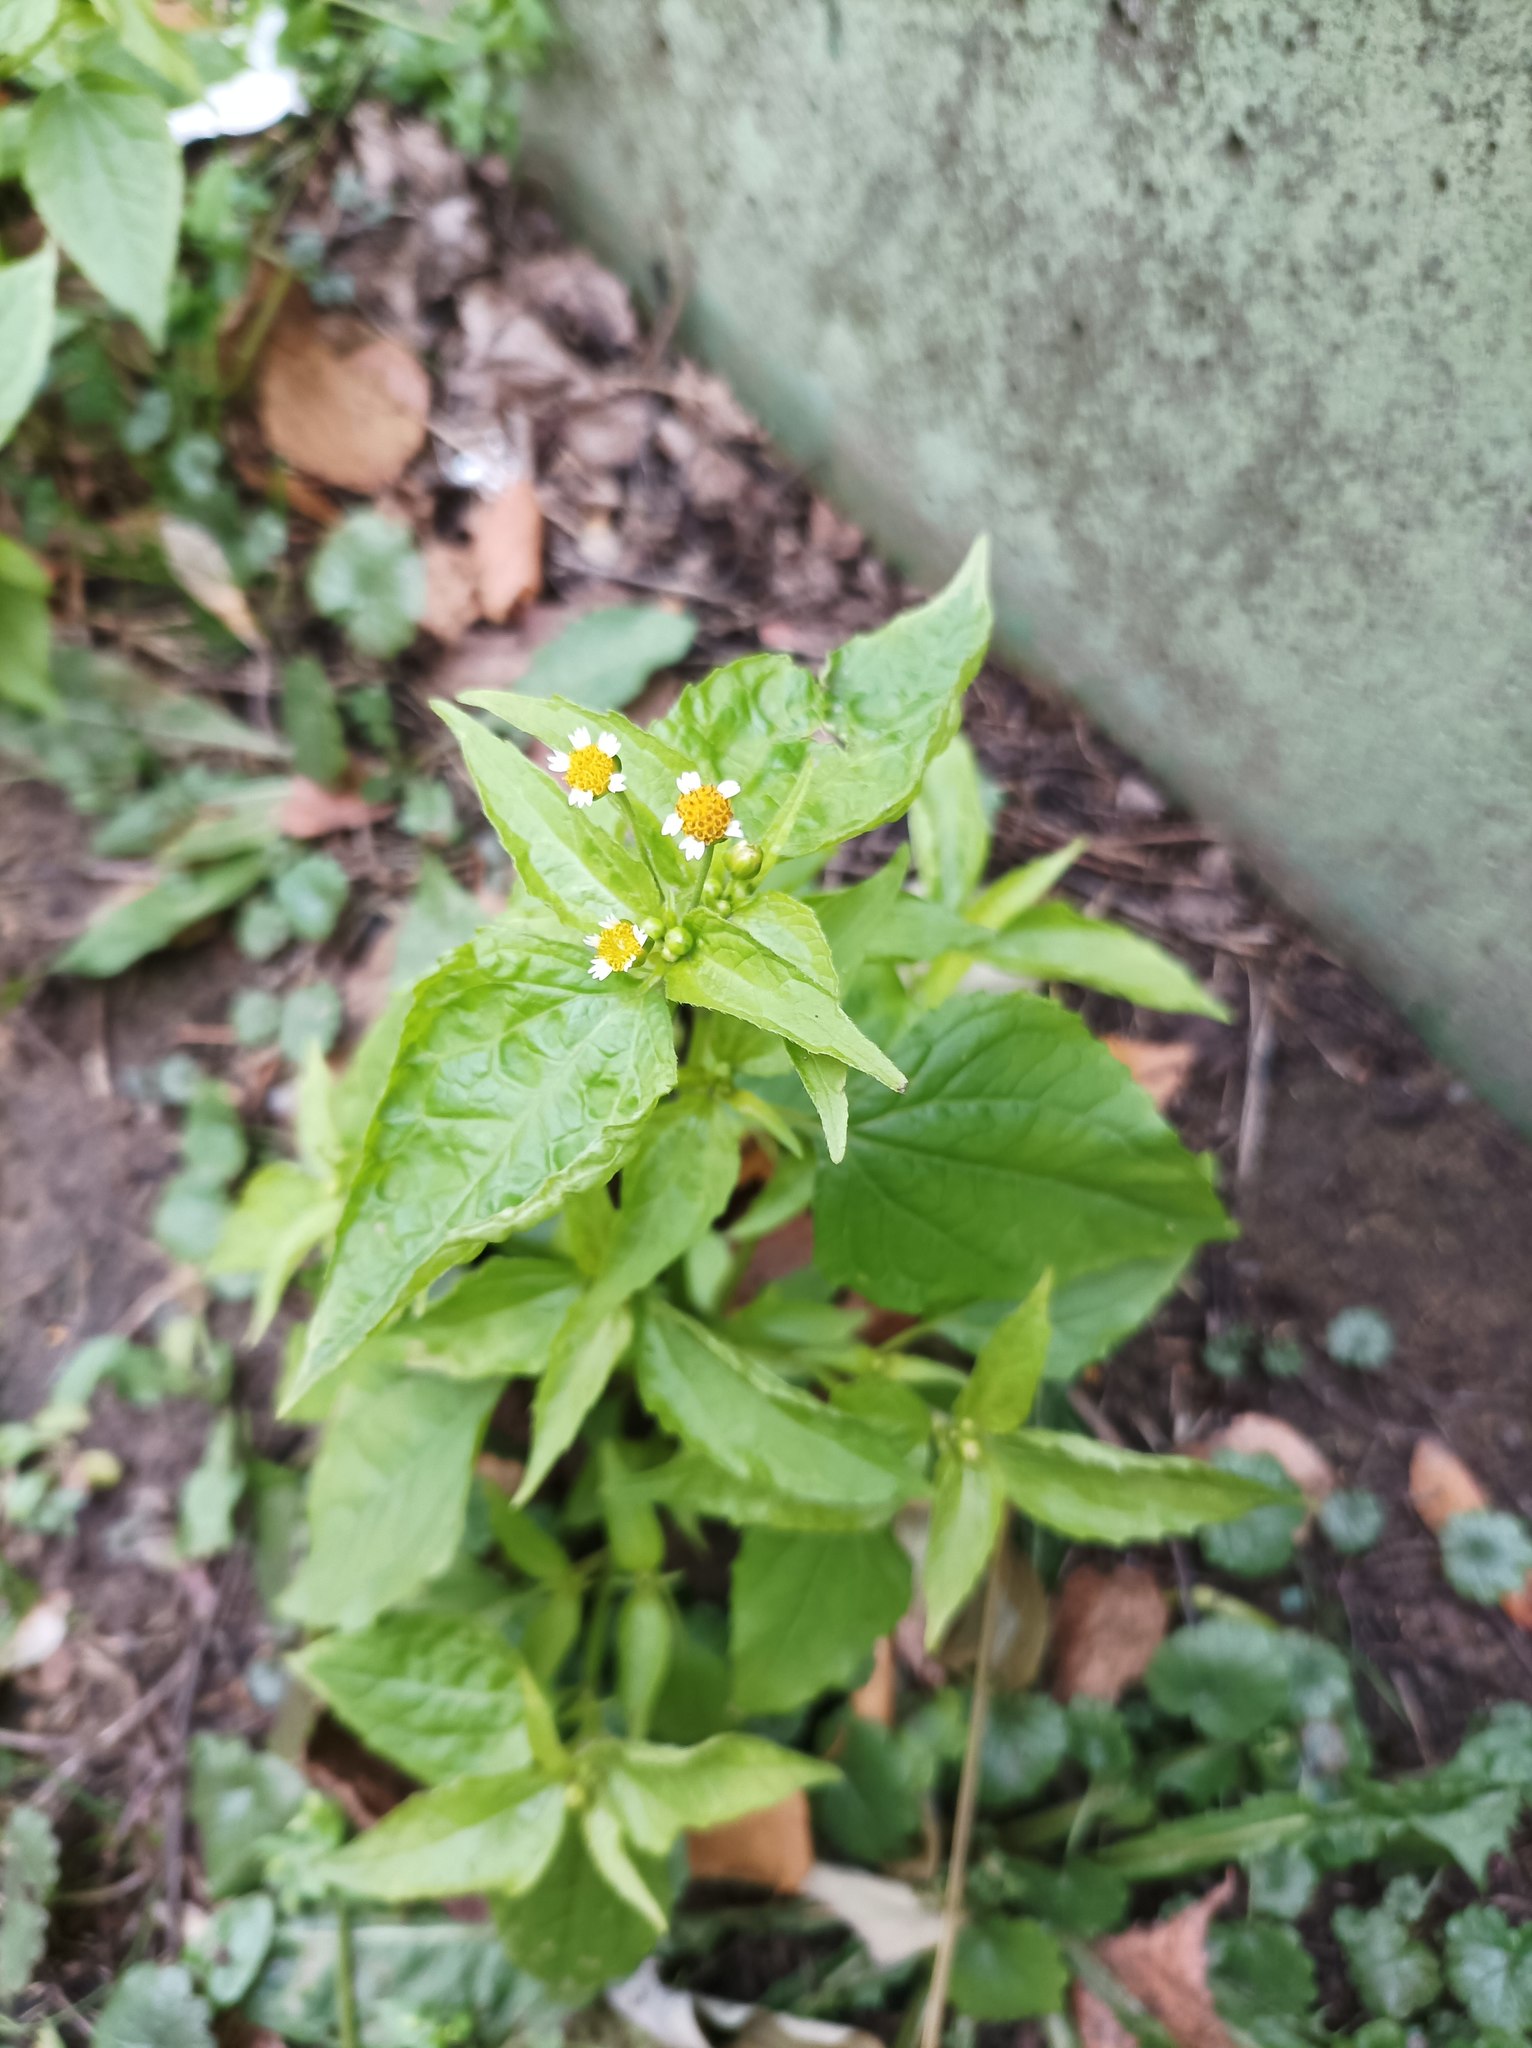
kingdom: Plantae
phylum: Tracheophyta
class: Magnoliopsida
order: Asterales
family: Asteraceae
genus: Galinsoga
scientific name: Galinsoga parviflora
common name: Gallant soldier
